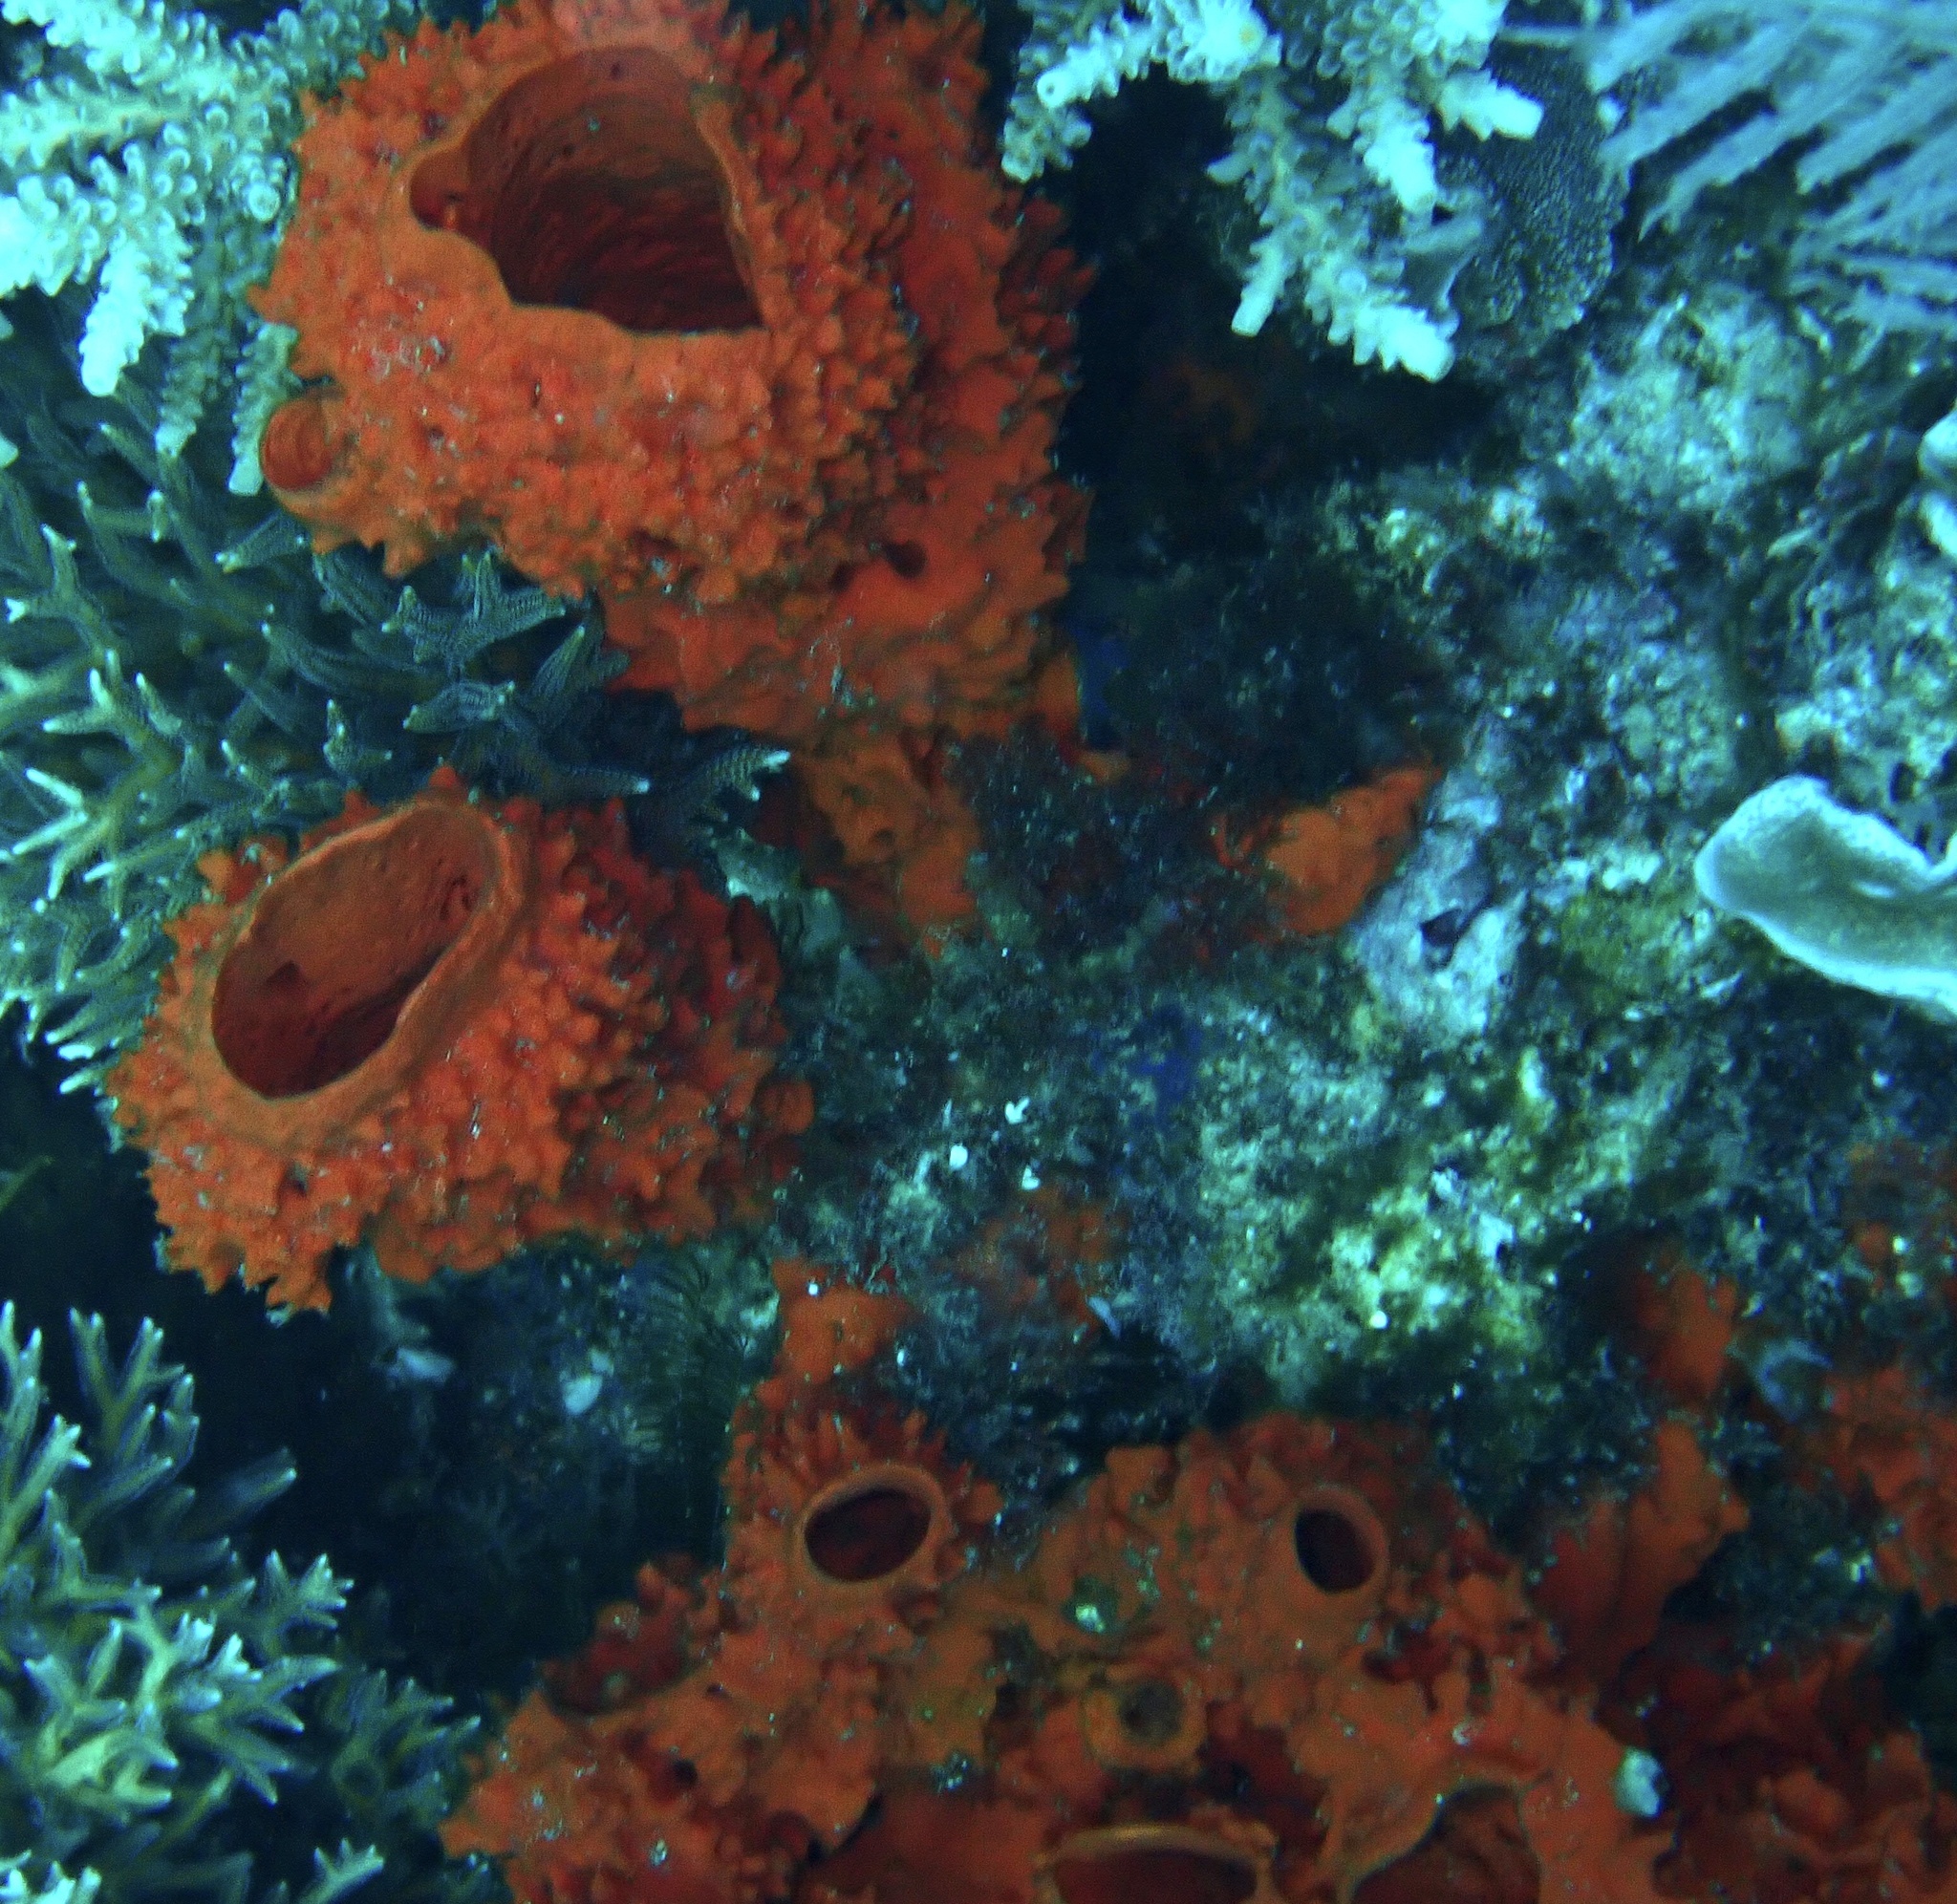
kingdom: Animalia
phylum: Porifera
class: Demospongiae
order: Poecilosclerida
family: Microcionidae
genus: Clathria
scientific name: Clathria basilana
